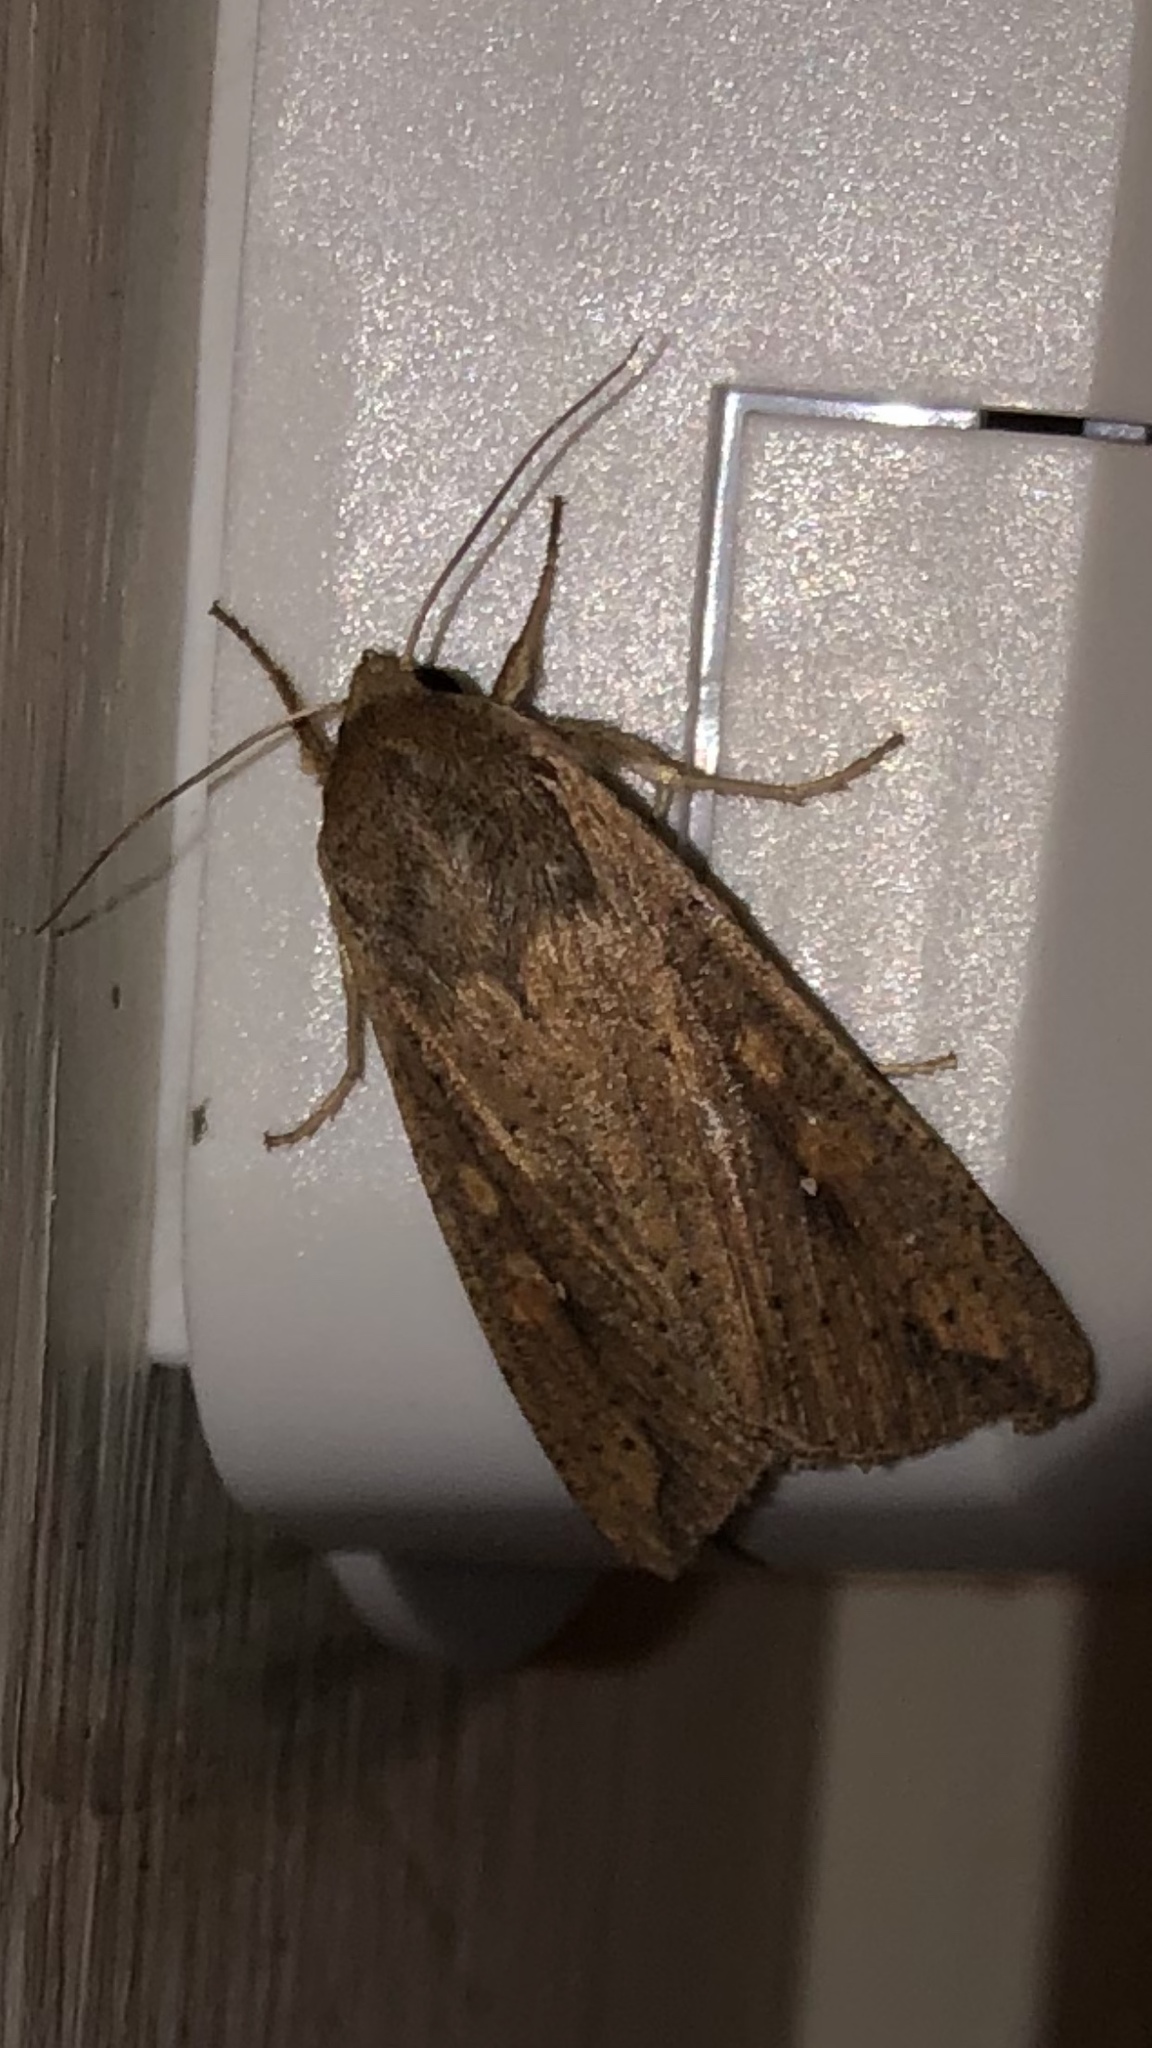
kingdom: Animalia
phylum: Arthropoda
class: Insecta
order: Lepidoptera
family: Noctuidae
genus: Mythimna
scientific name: Mythimna unipuncta
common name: White-speck
